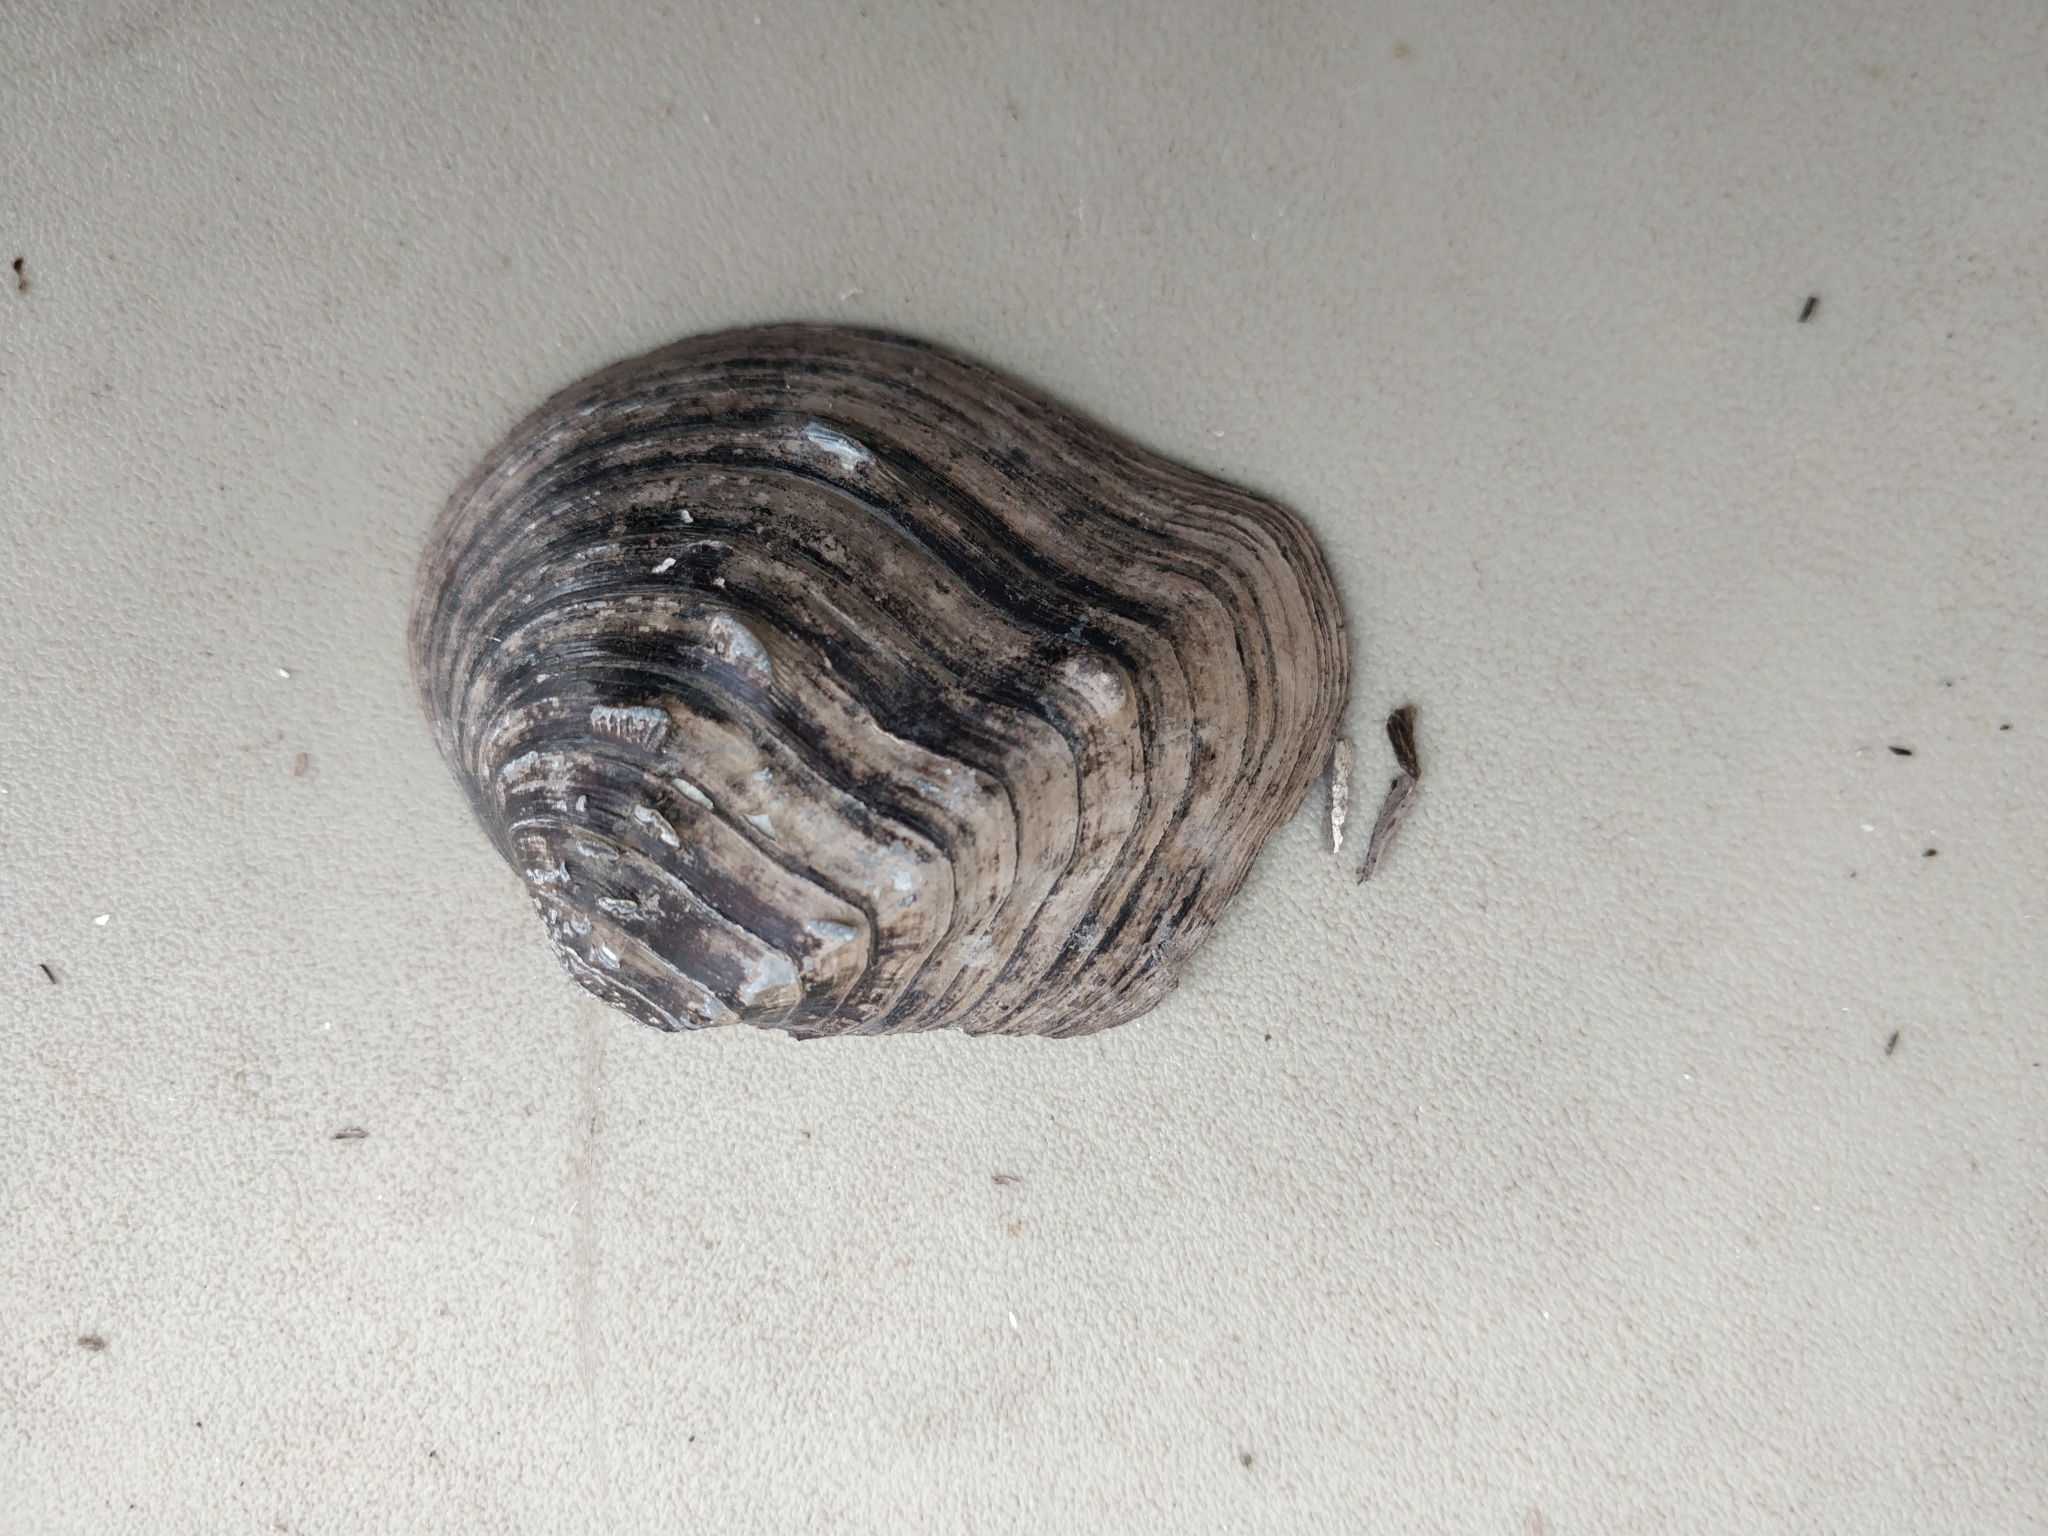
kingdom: Animalia
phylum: Mollusca
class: Bivalvia
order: Unionida
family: Unionidae
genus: Quadrula
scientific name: Quadrula quadrula
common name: Mapleleaf
